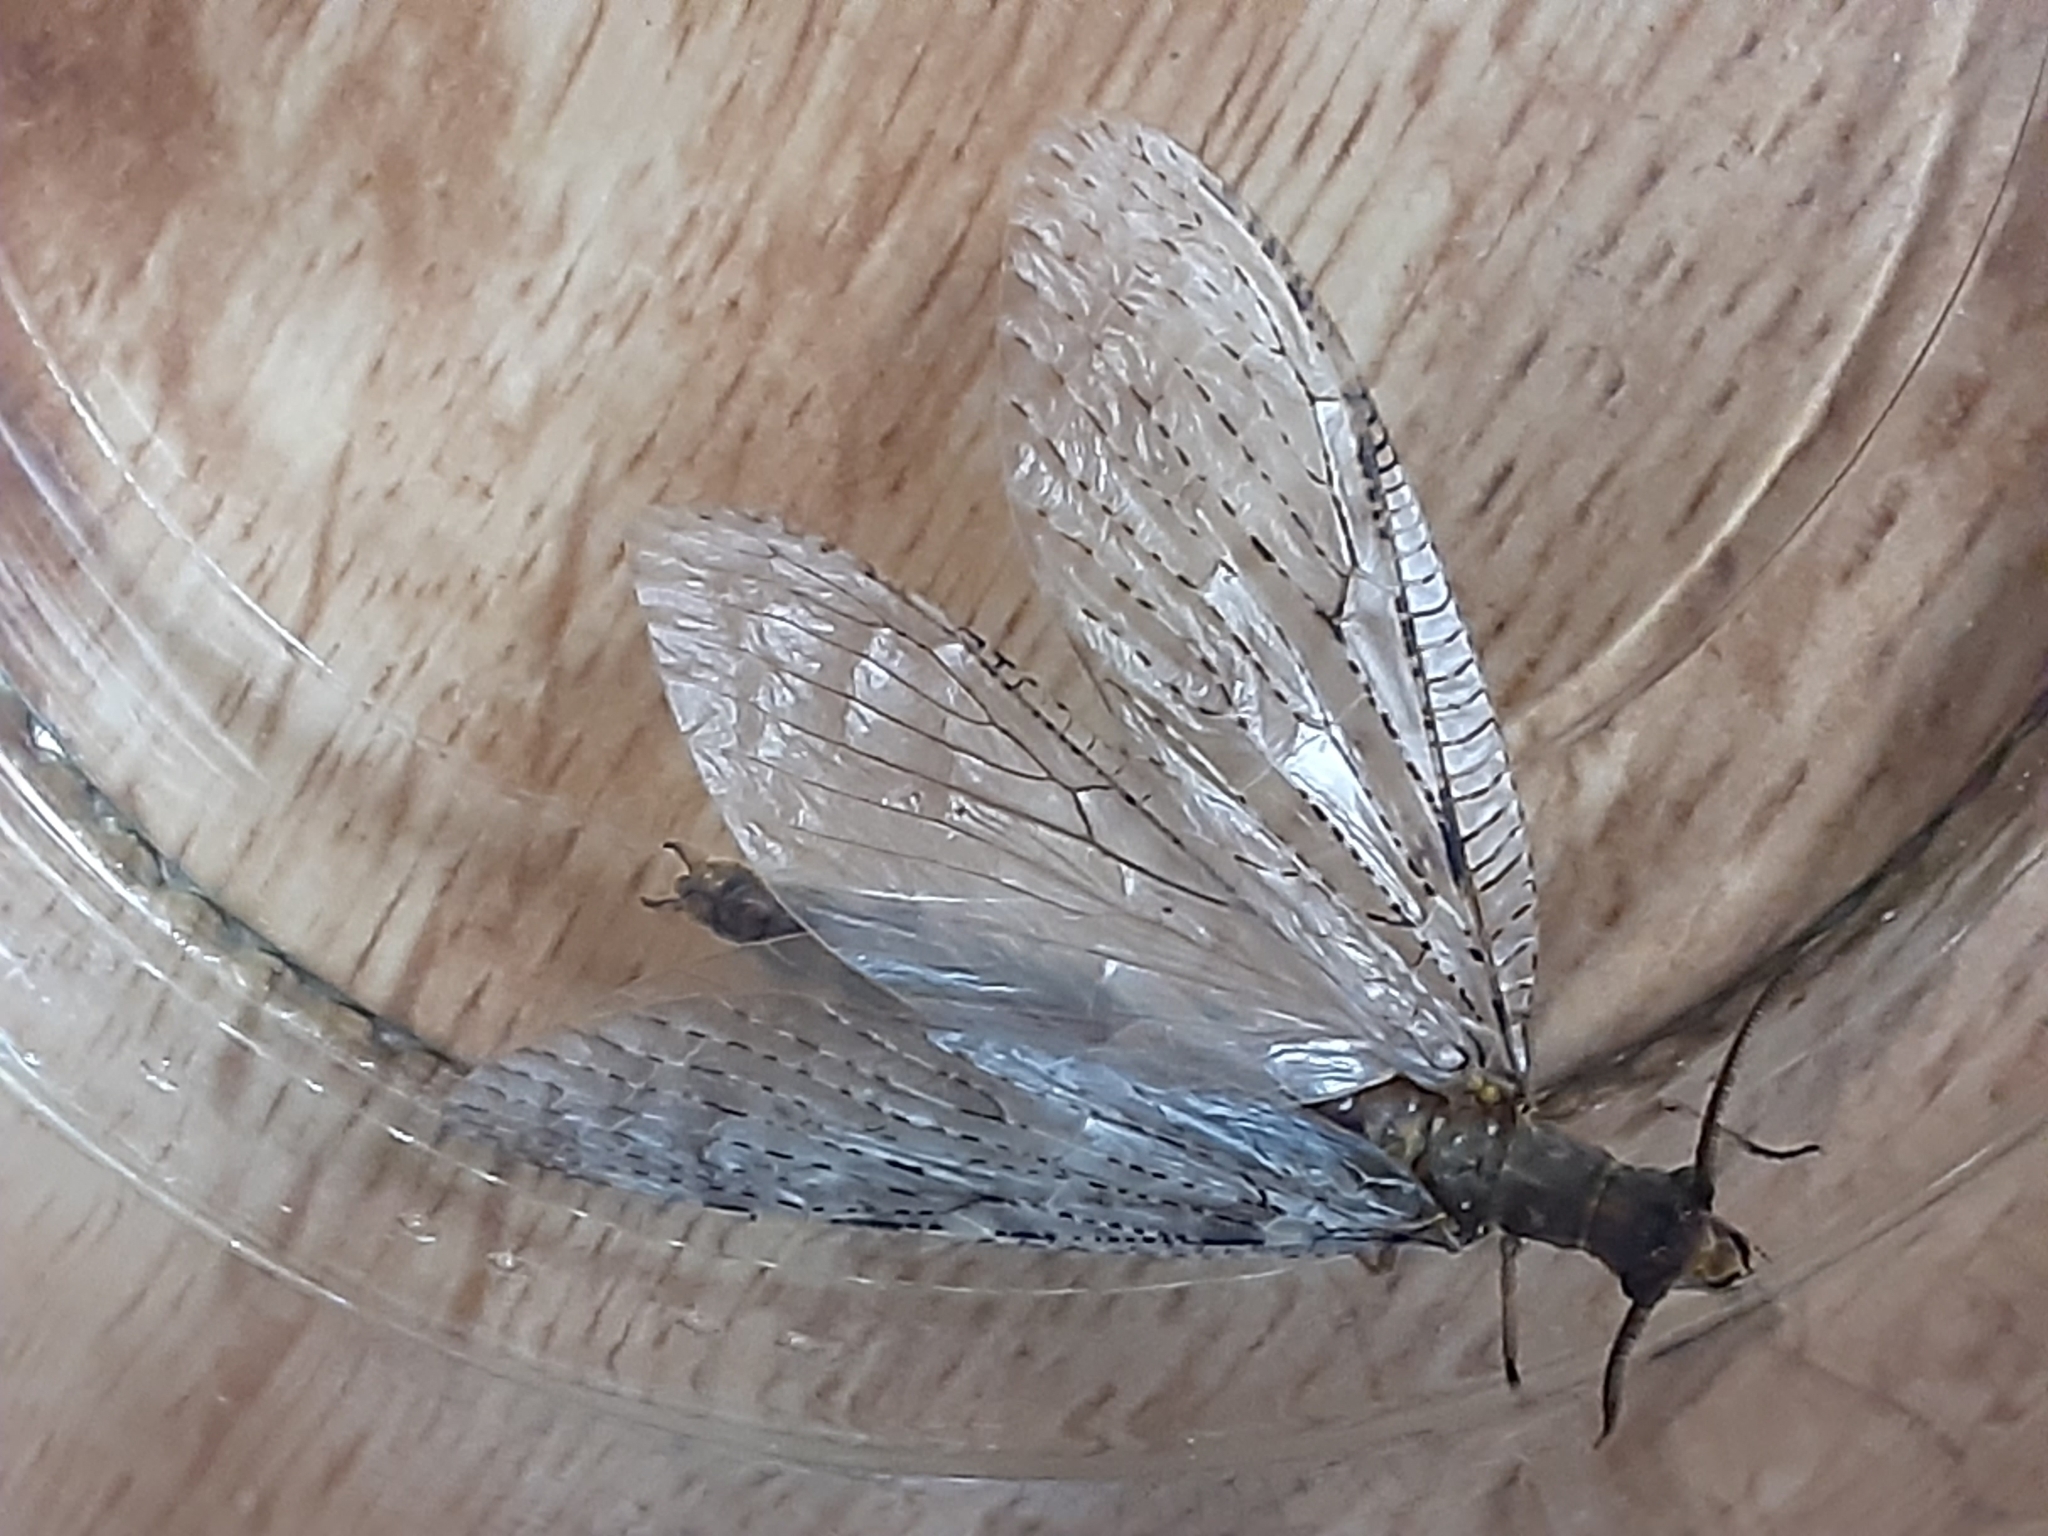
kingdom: Animalia
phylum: Arthropoda
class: Insecta
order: Megaloptera
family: Corydalidae
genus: Chauliodes
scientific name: Chauliodes pectinicornis
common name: Summer fishfly
